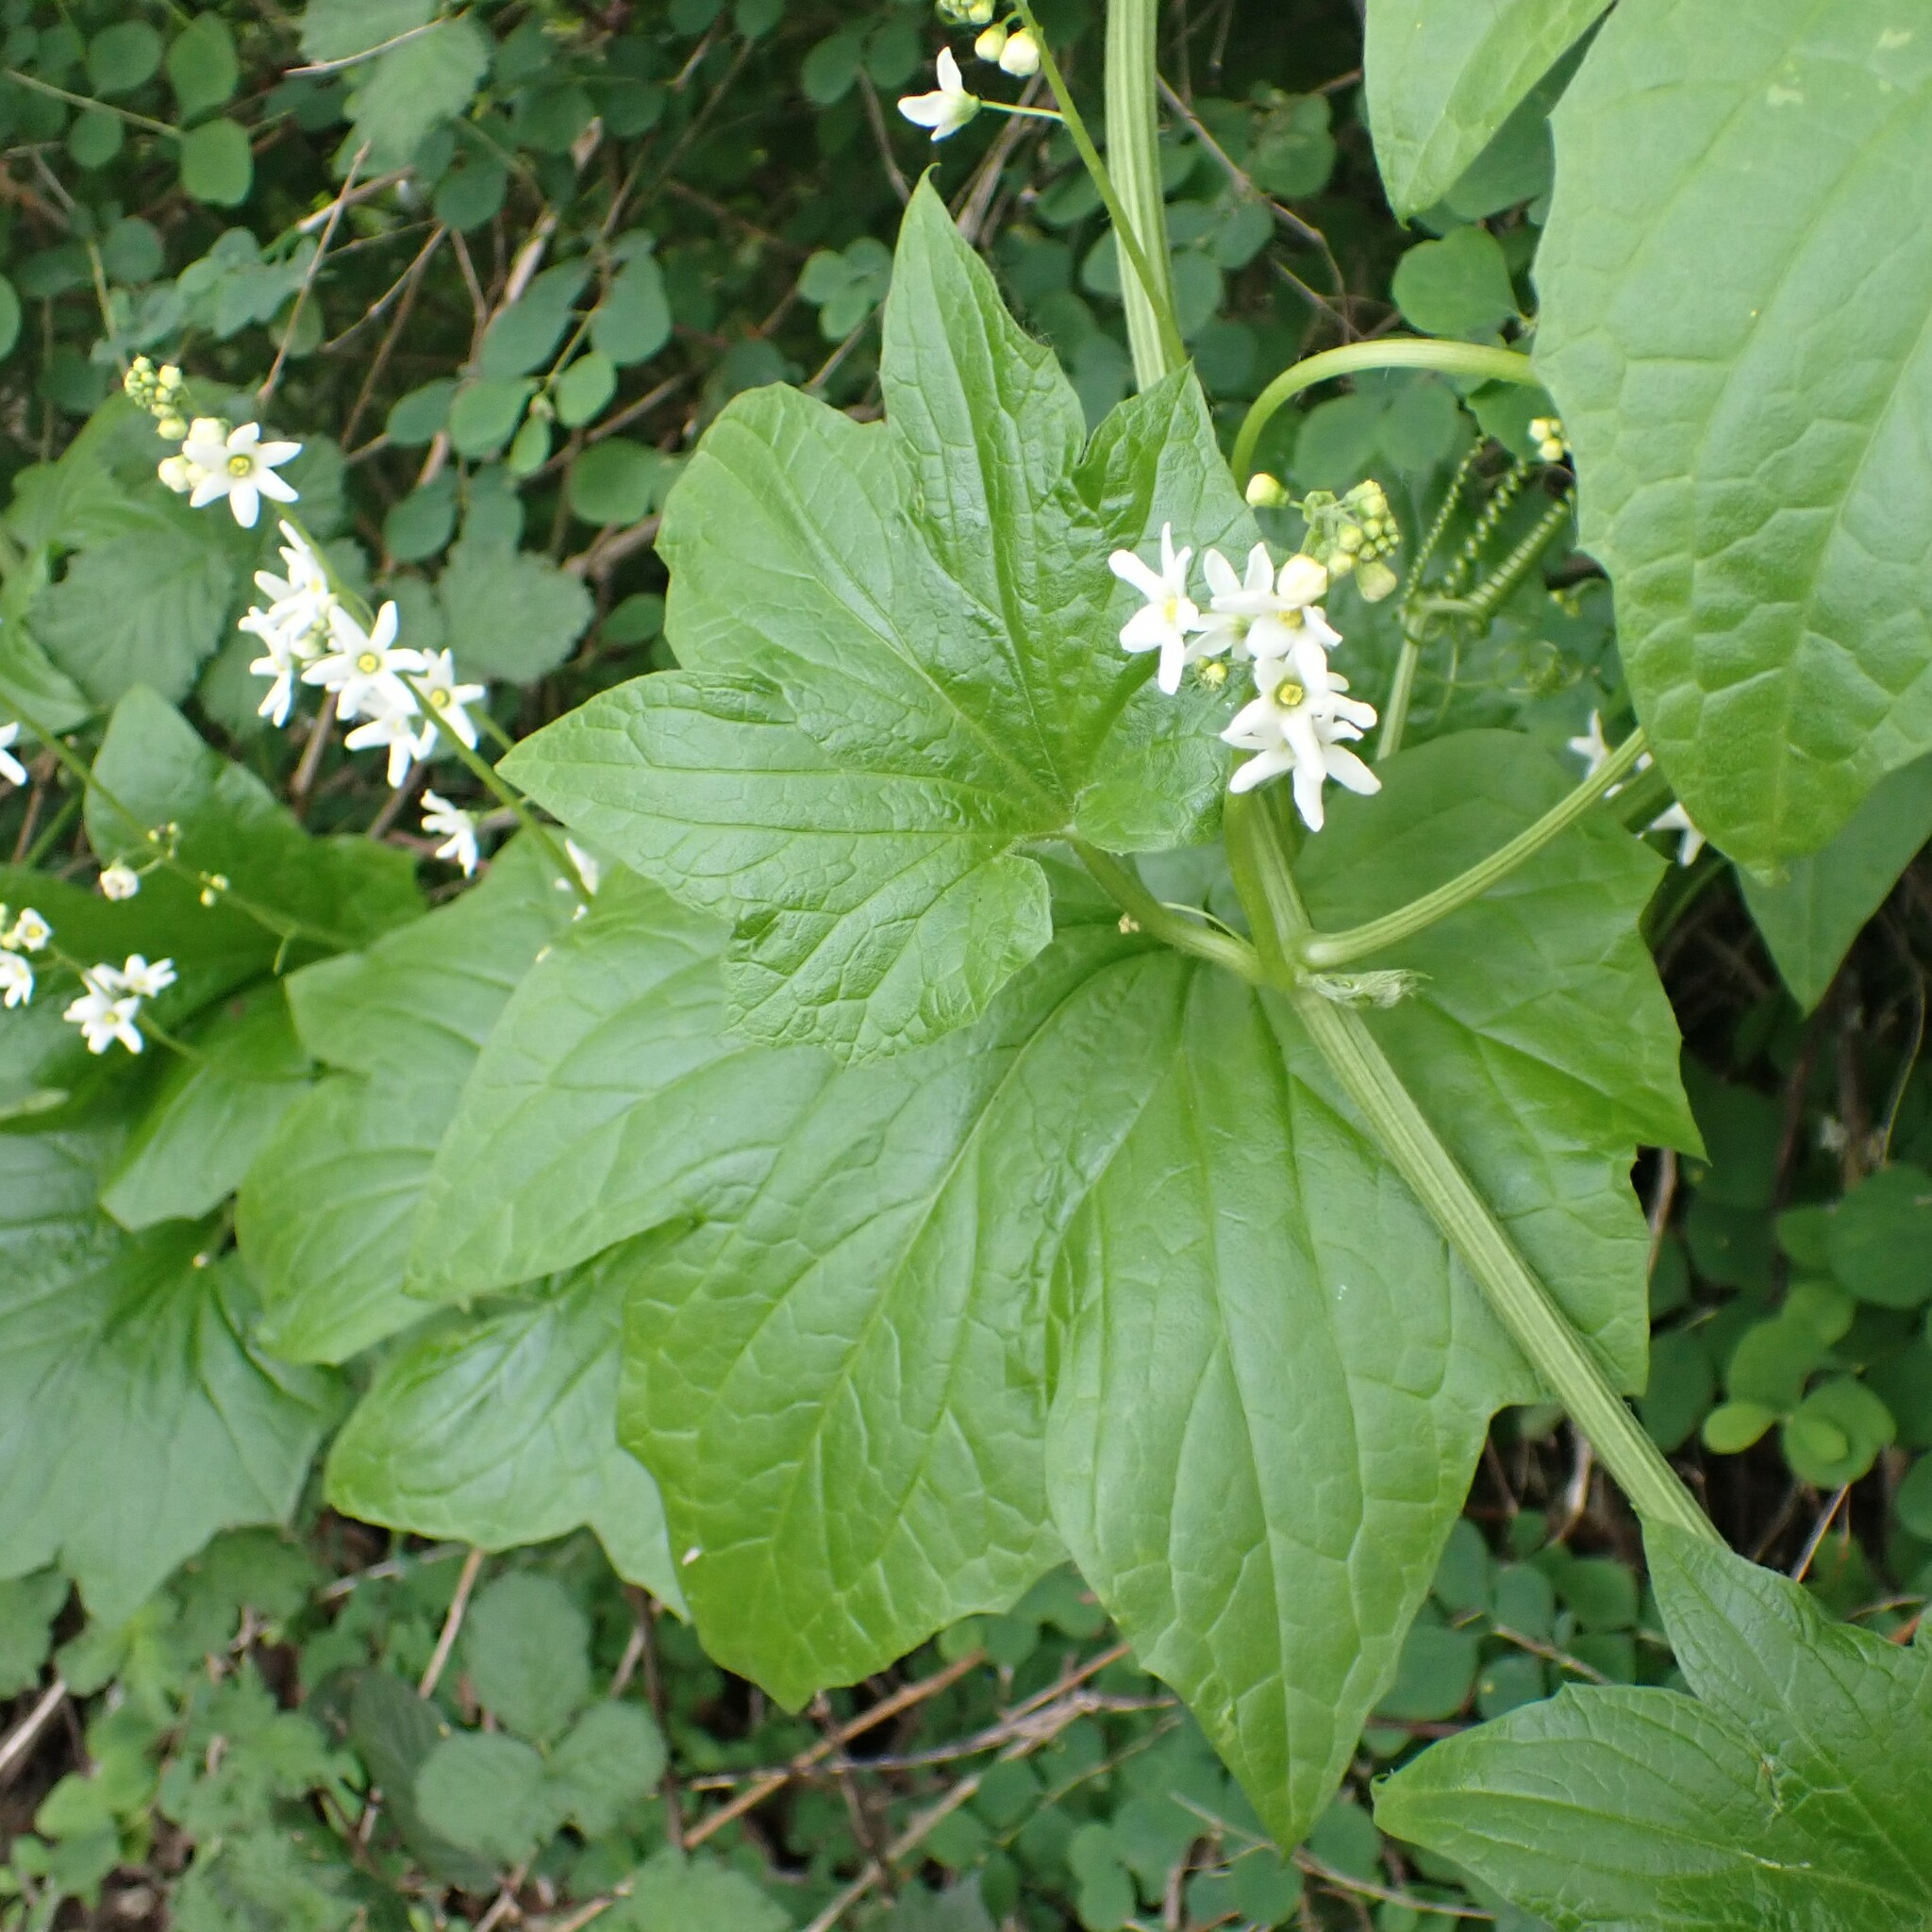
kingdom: Plantae
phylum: Tracheophyta
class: Magnoliopsida
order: Cucurbitales
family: Cucurbitaceae
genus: Marah
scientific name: Marah oregana
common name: Coastal manroot
